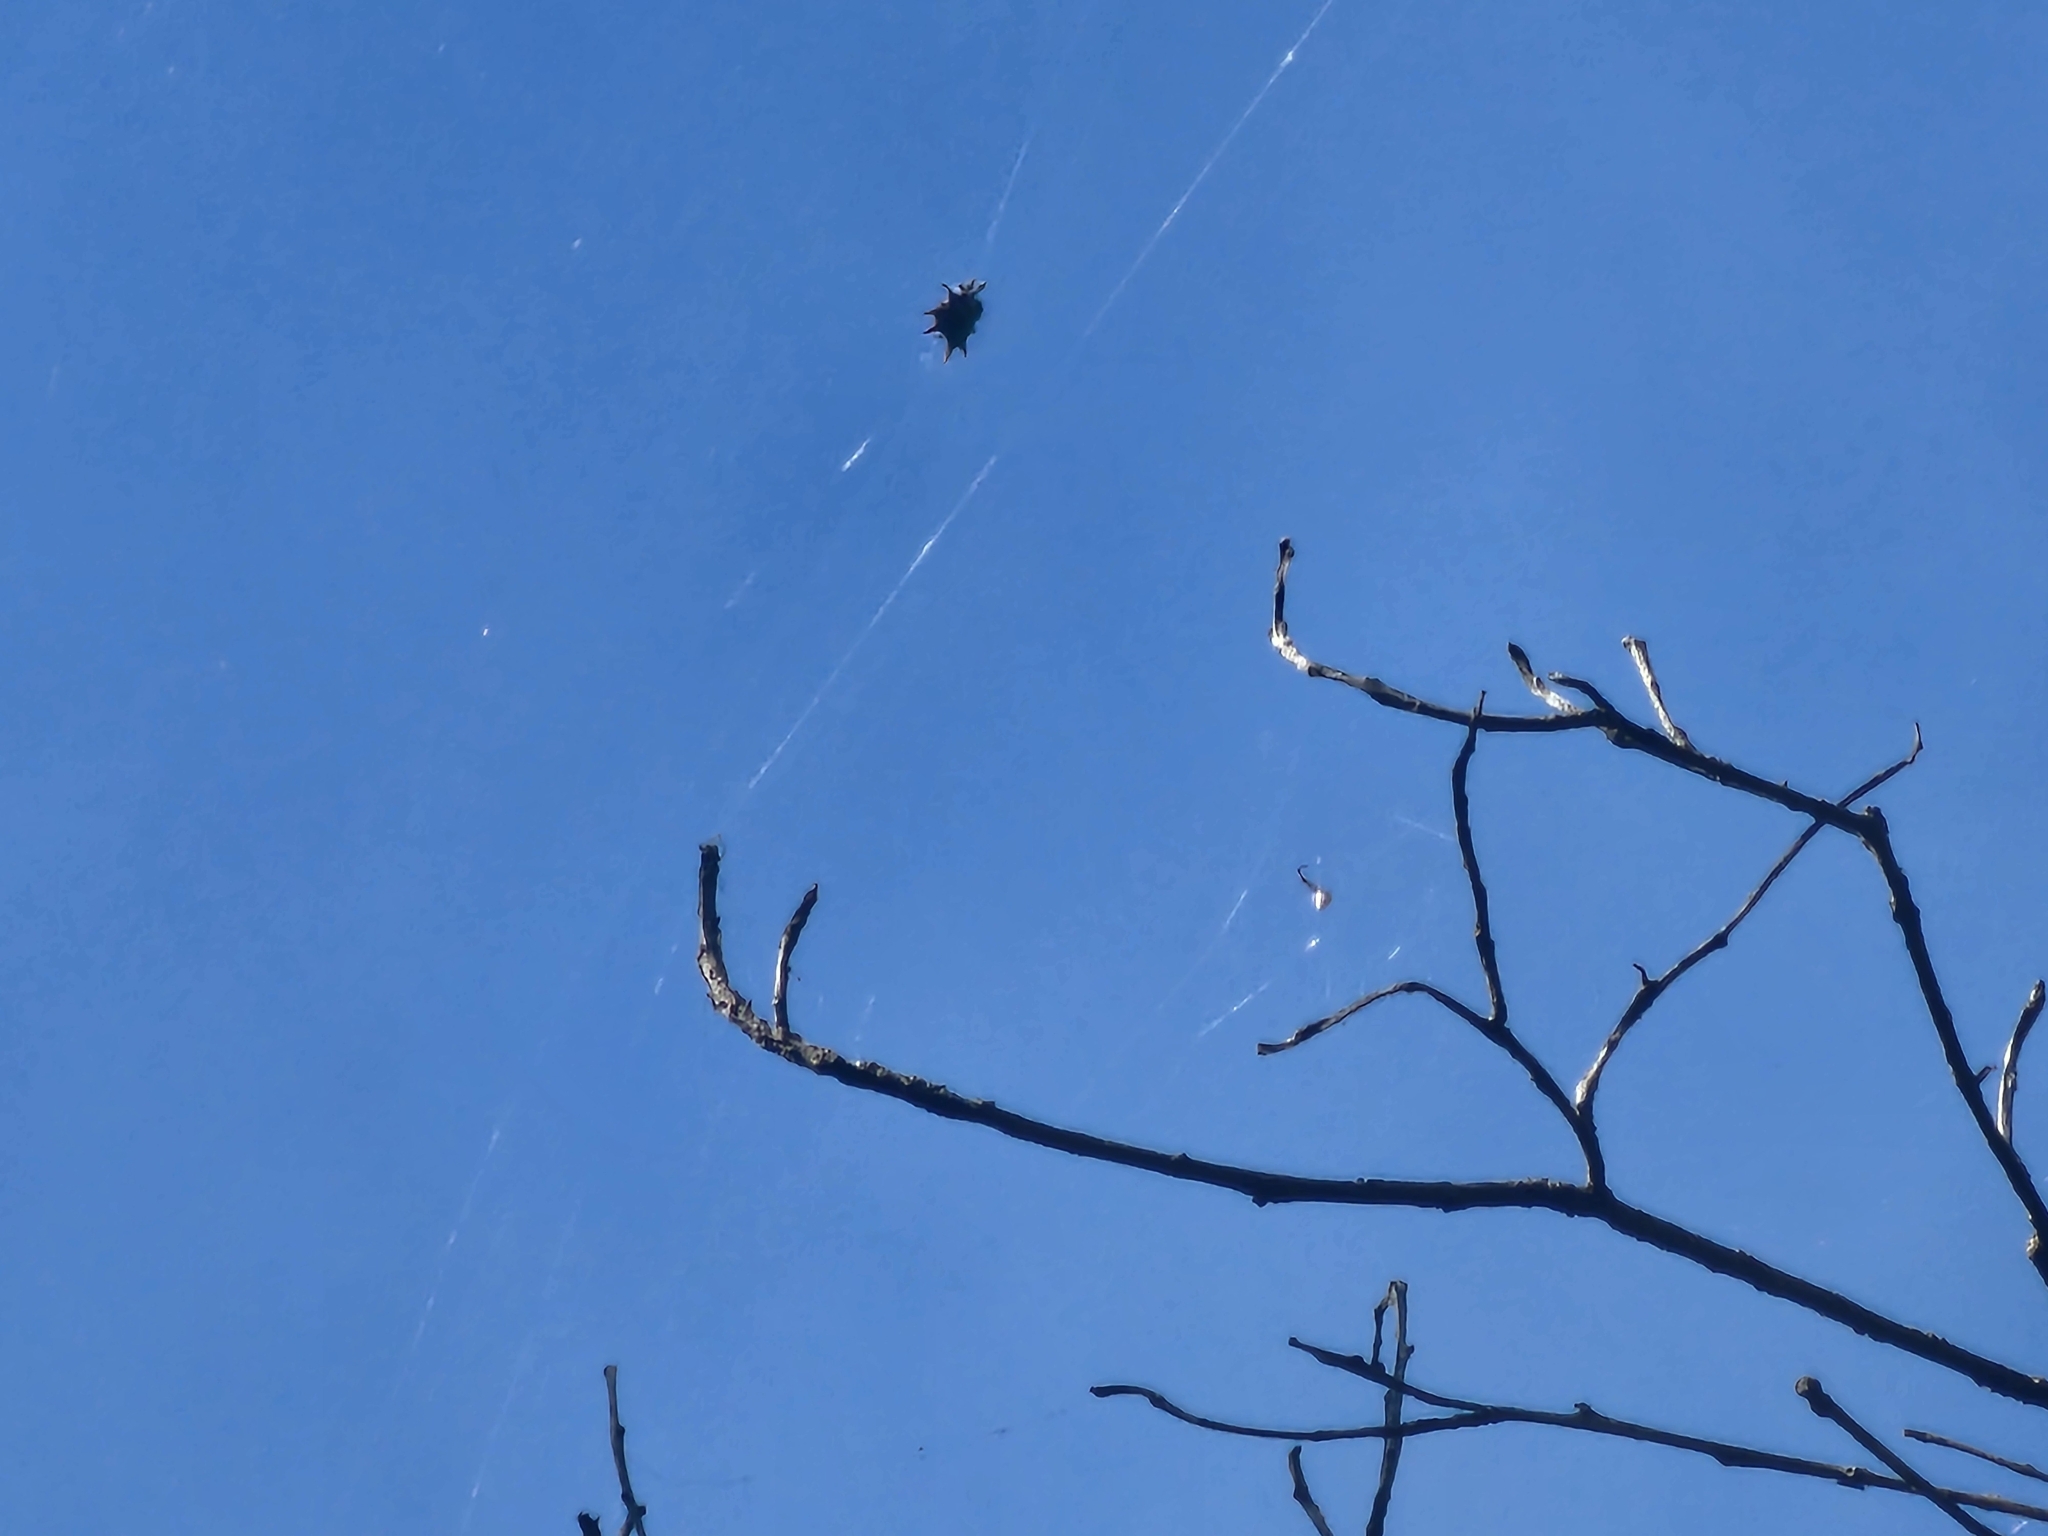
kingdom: Animalia
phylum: Arthropoda
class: Arachnida
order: Araneae
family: Araneidae
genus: Gasteracantha
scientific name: Gasteracantha cancriformis
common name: Orb weavers
